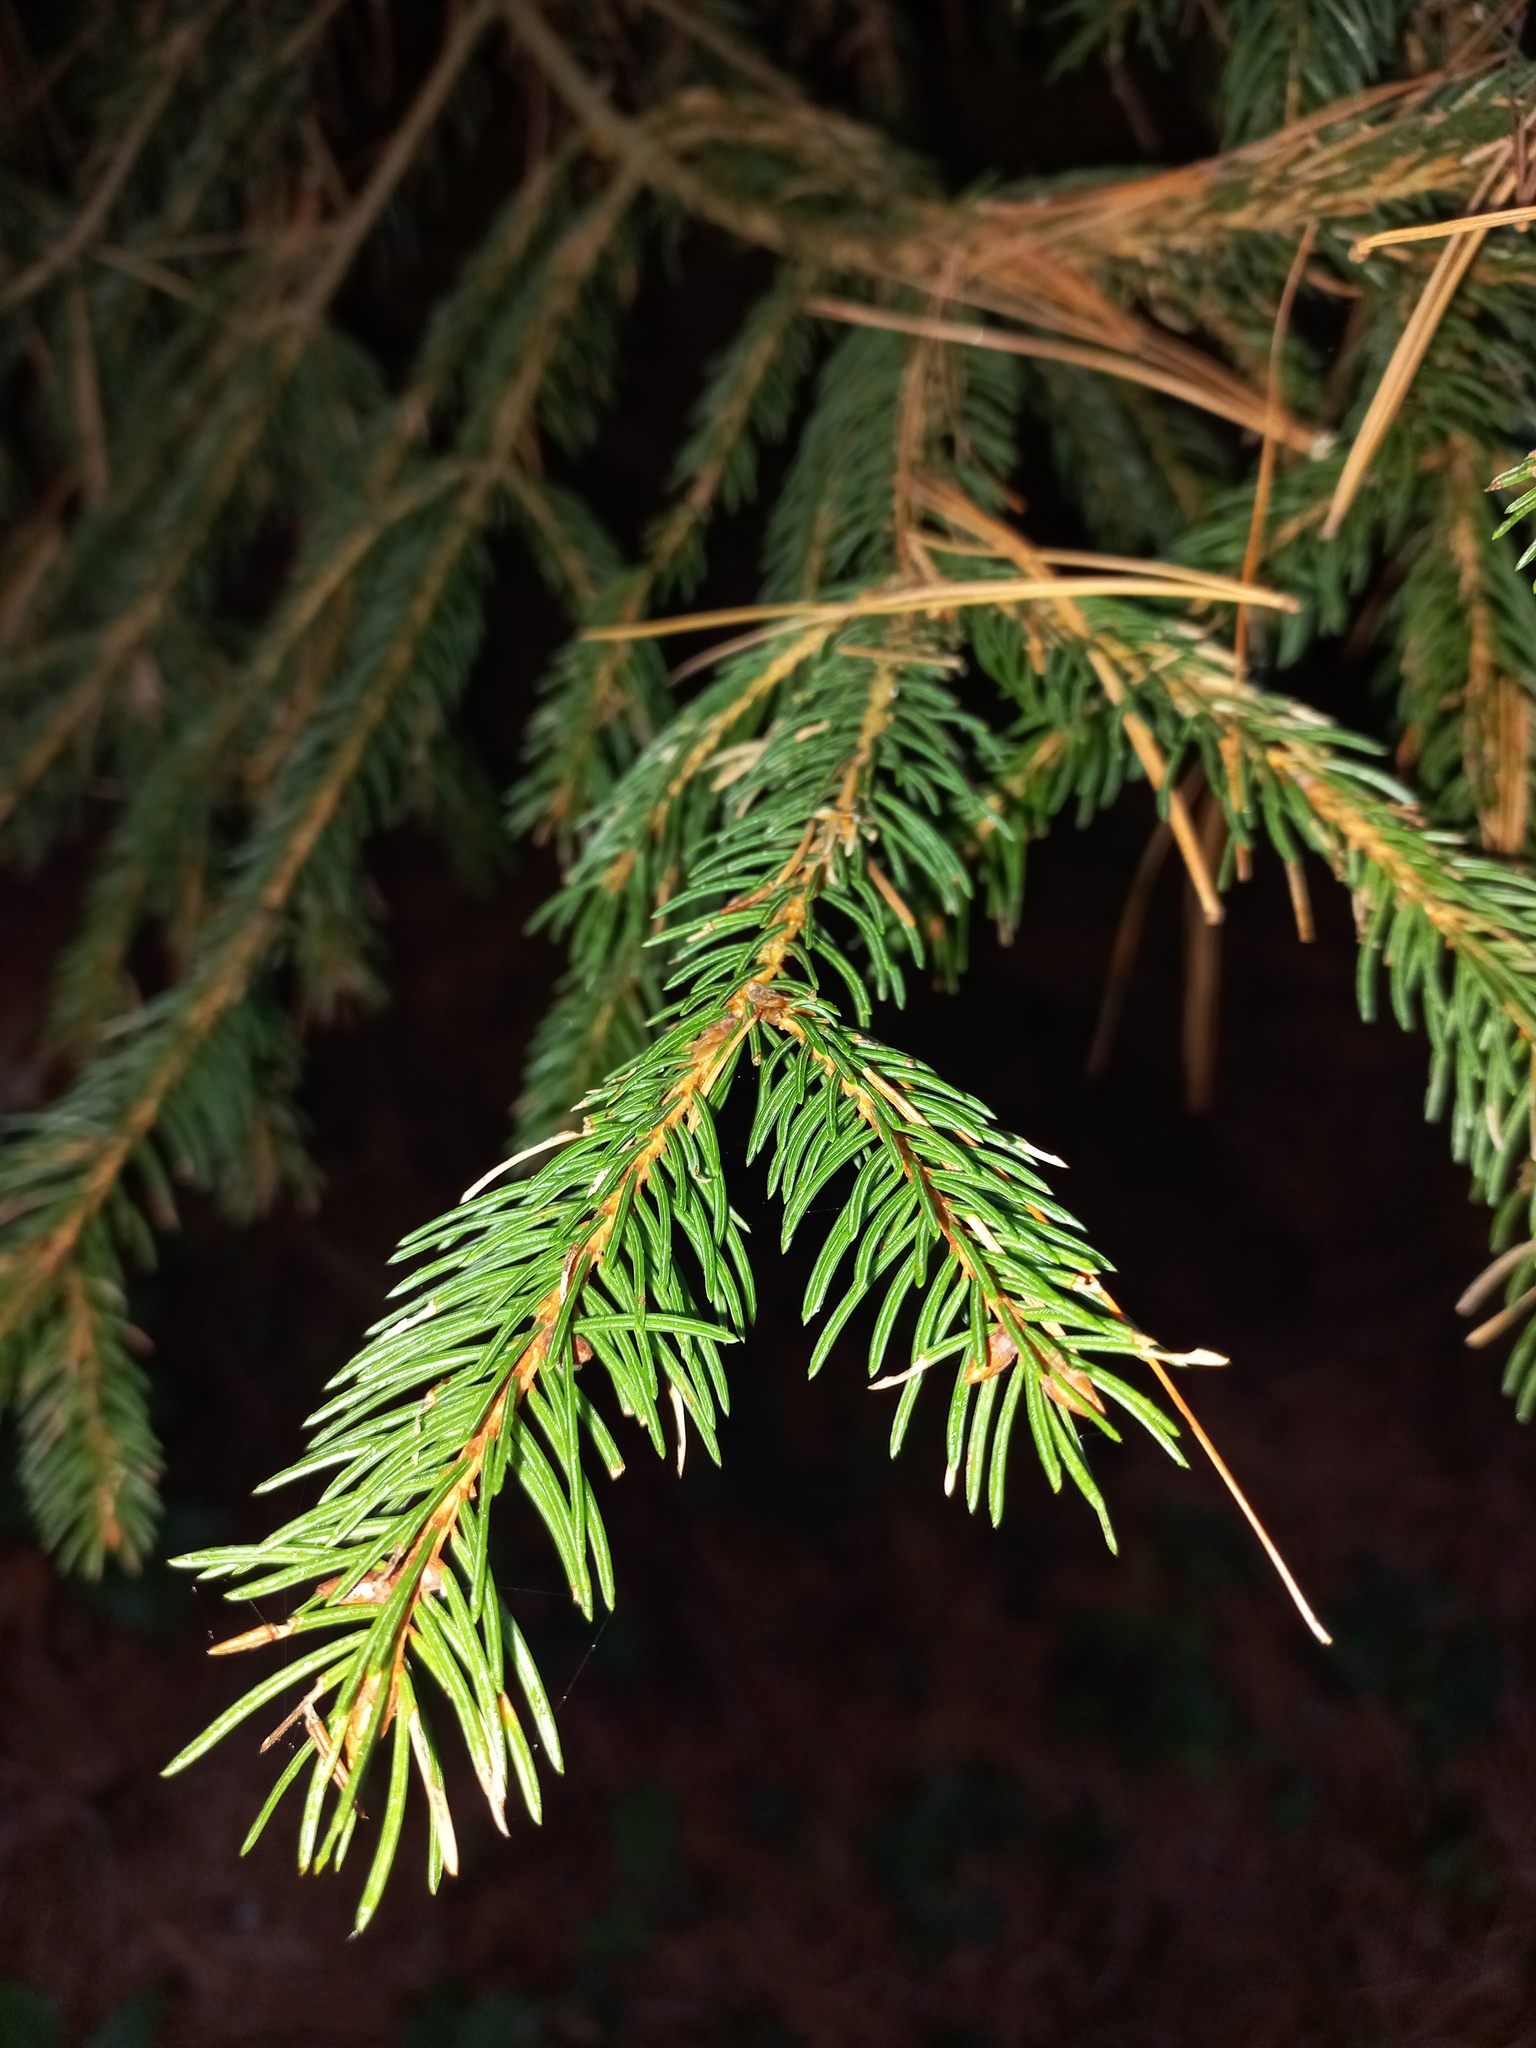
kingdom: Plantae
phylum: Tracheophyta
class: Pinopsida
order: Pinales
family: Pinaceae
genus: Picea
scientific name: Picea abies
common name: Norway spruce
